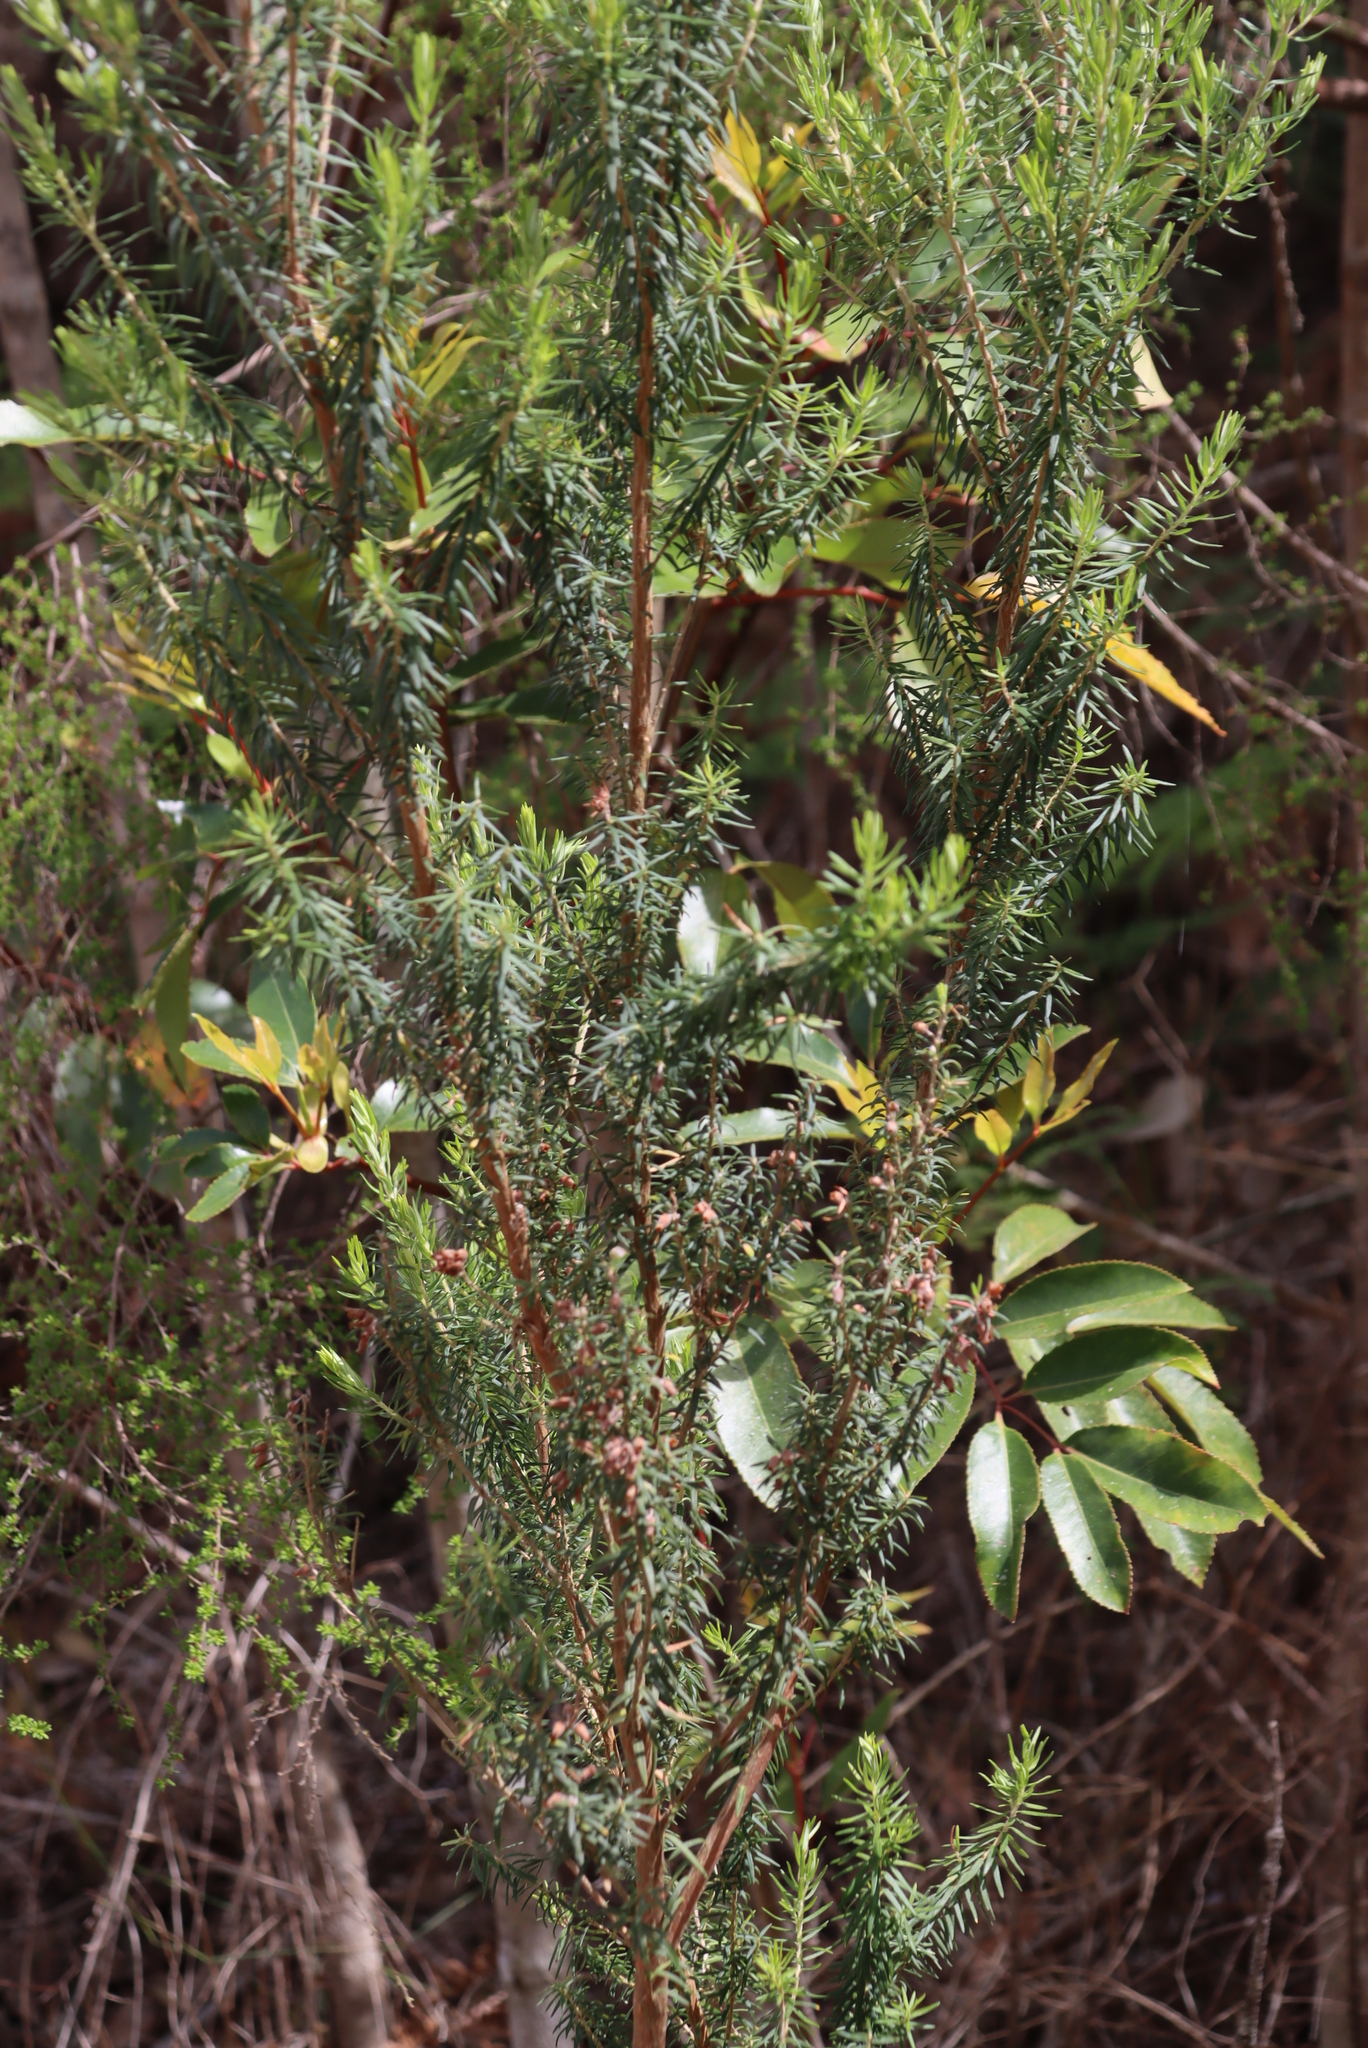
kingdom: Plantae
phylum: Tracheophyta
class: Magnoliopsida
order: Ericales
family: Ericaceae
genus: Erica
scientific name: Erica caffra
